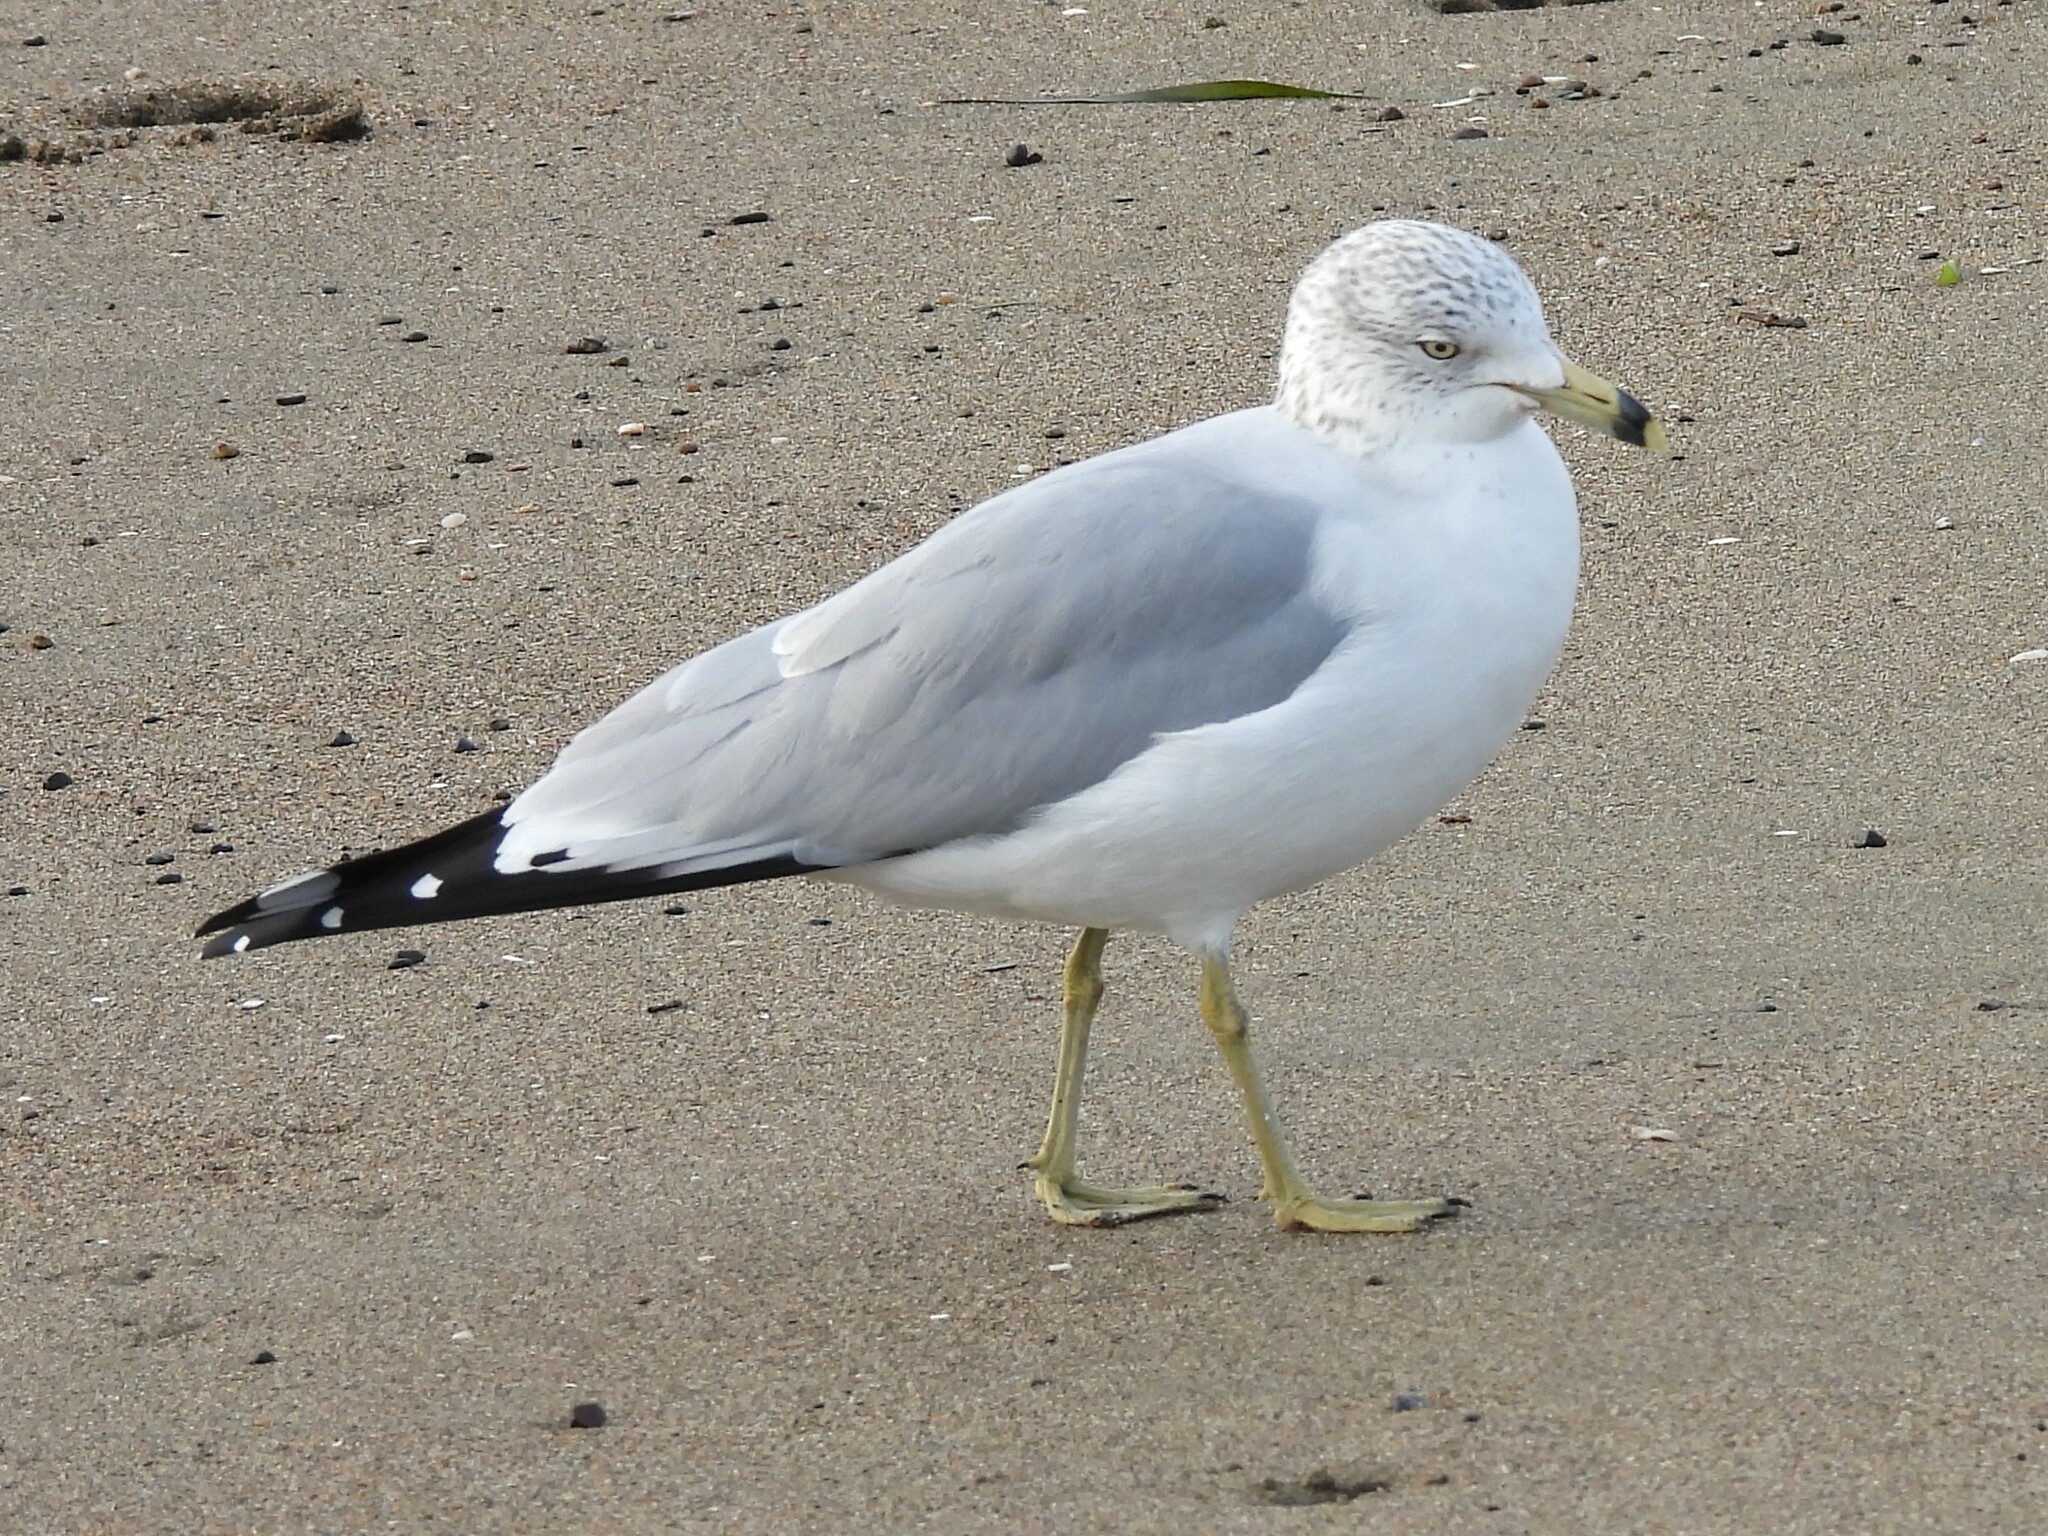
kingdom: Animalia
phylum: Chordata
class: Aves
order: Charadriiformes
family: Laridae
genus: Larus
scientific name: Larus delawarensis
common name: Ring-billed gull
